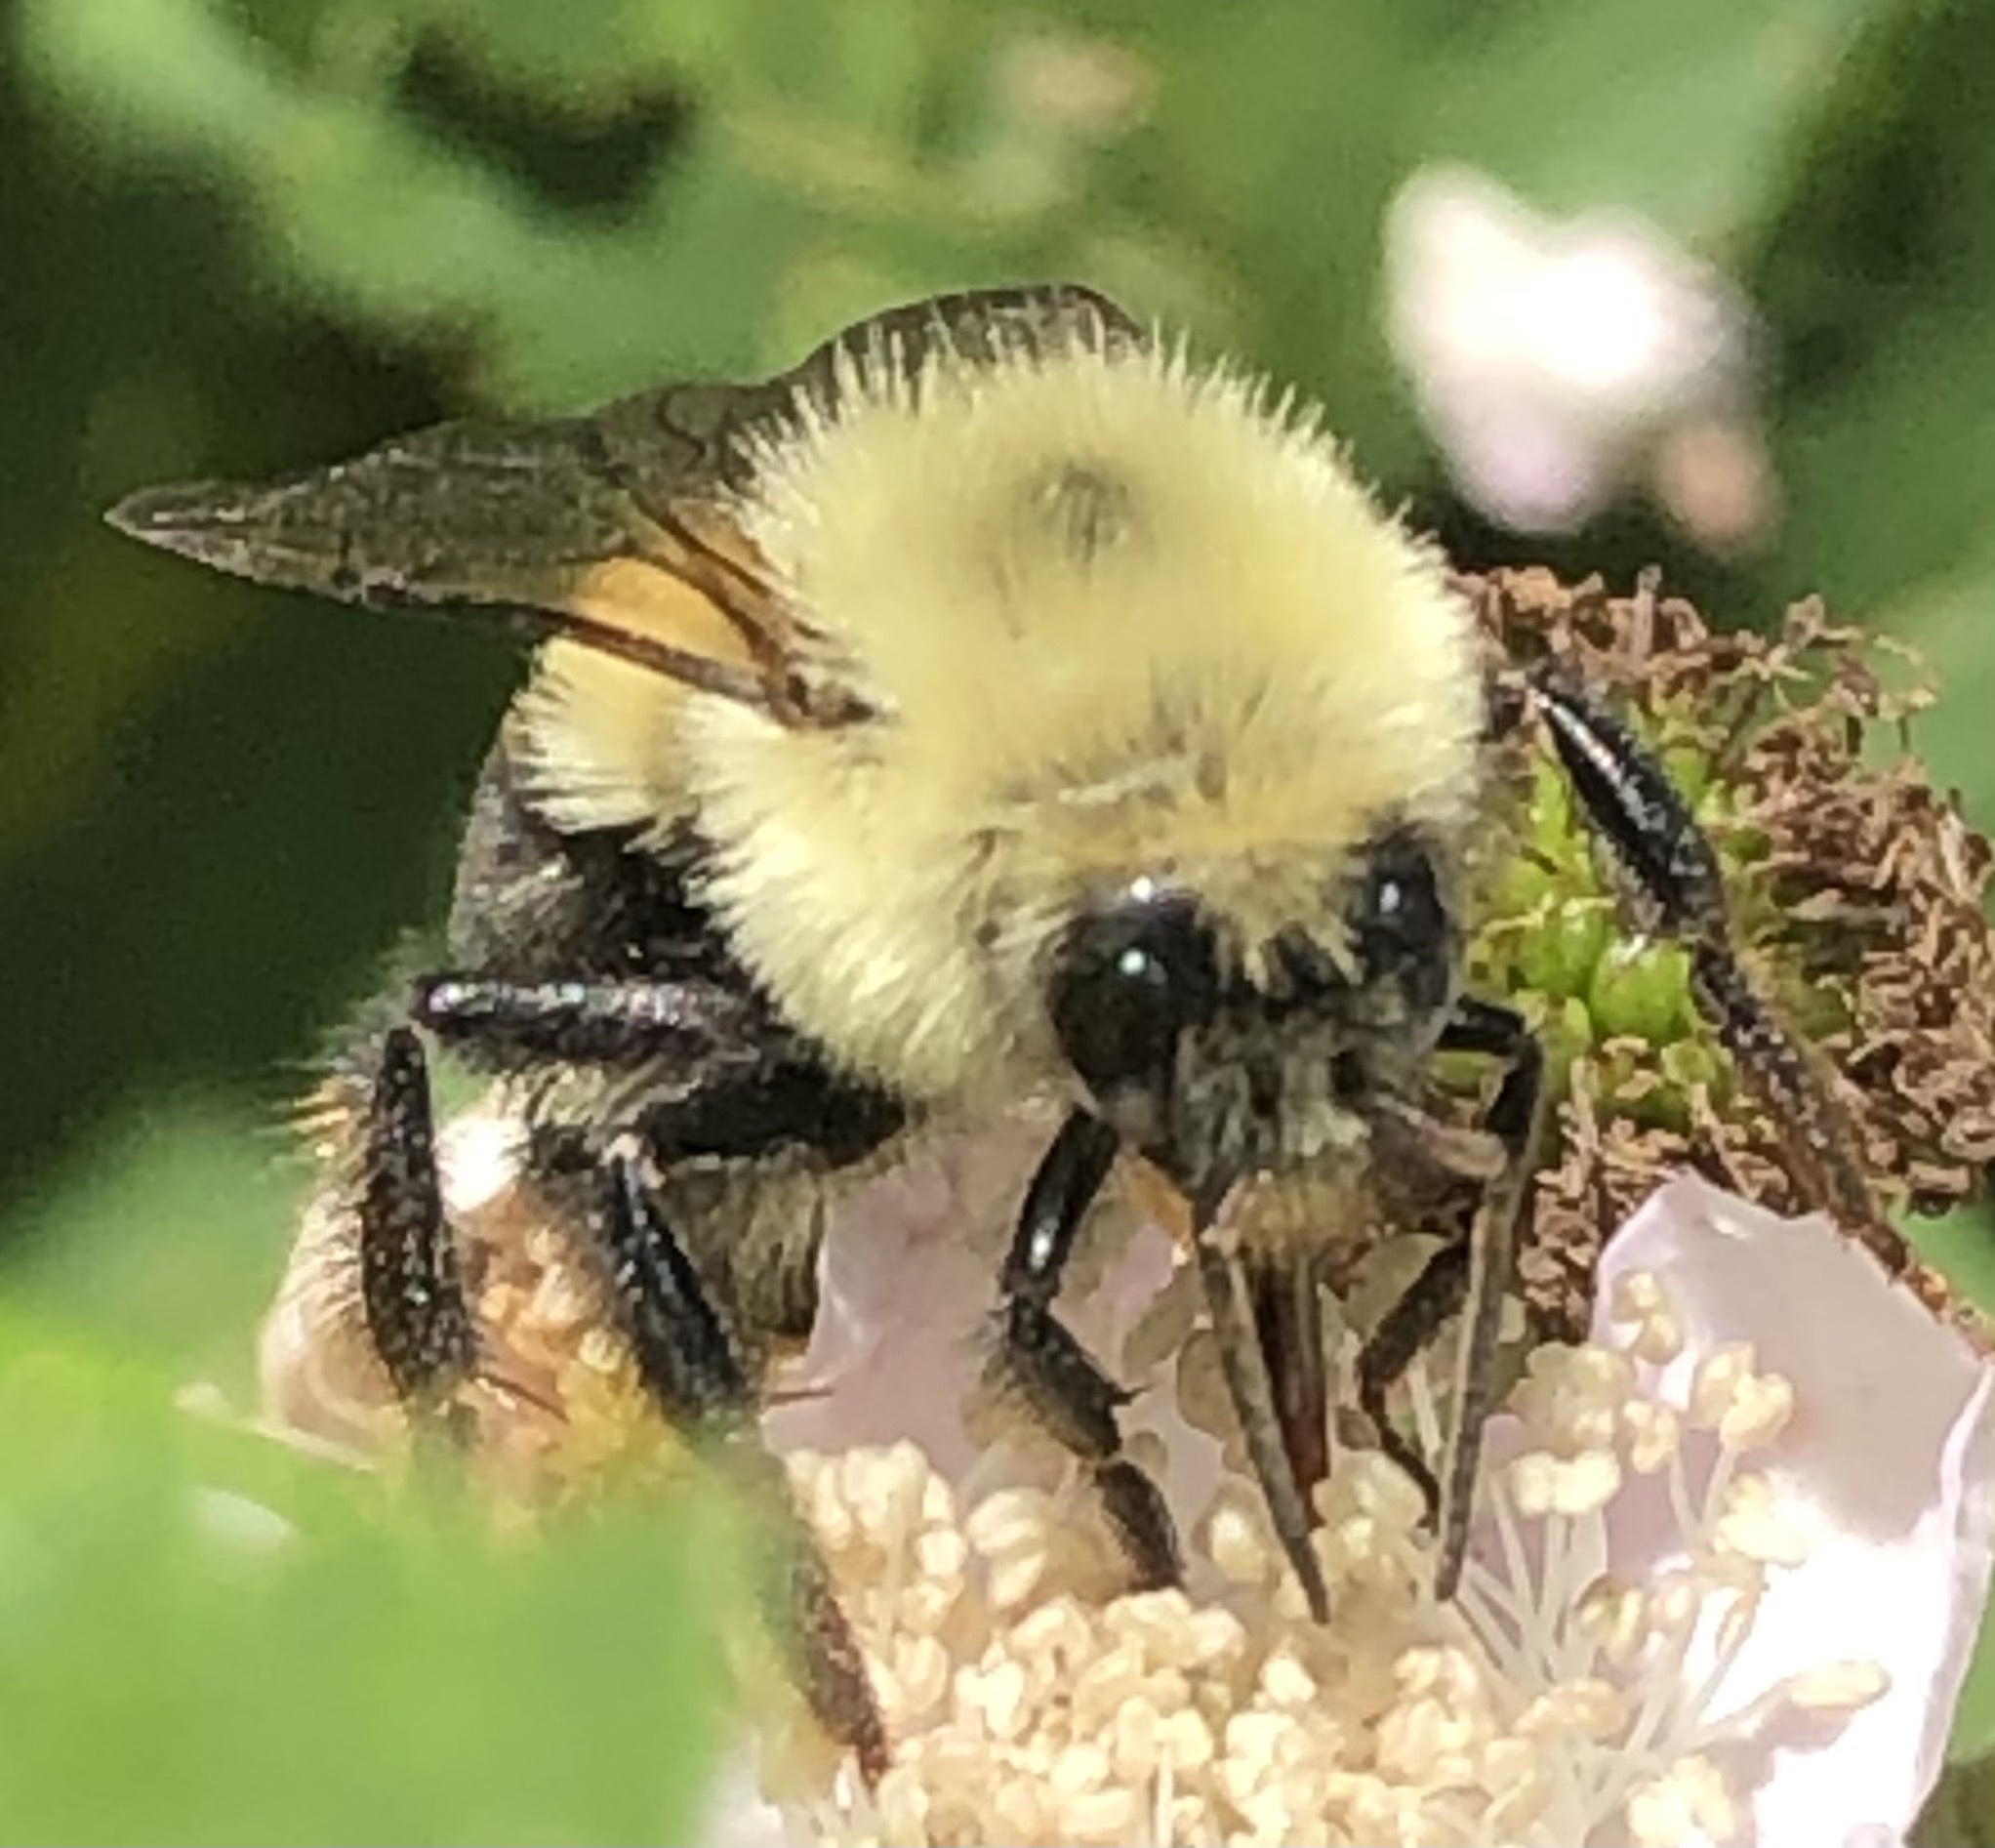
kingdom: Animalia
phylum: Arthropoda
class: Insecta
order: Hymenoptera
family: Apidae
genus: Bombus
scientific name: Bombus bimaculatus
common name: Two-spotted bumble bee
